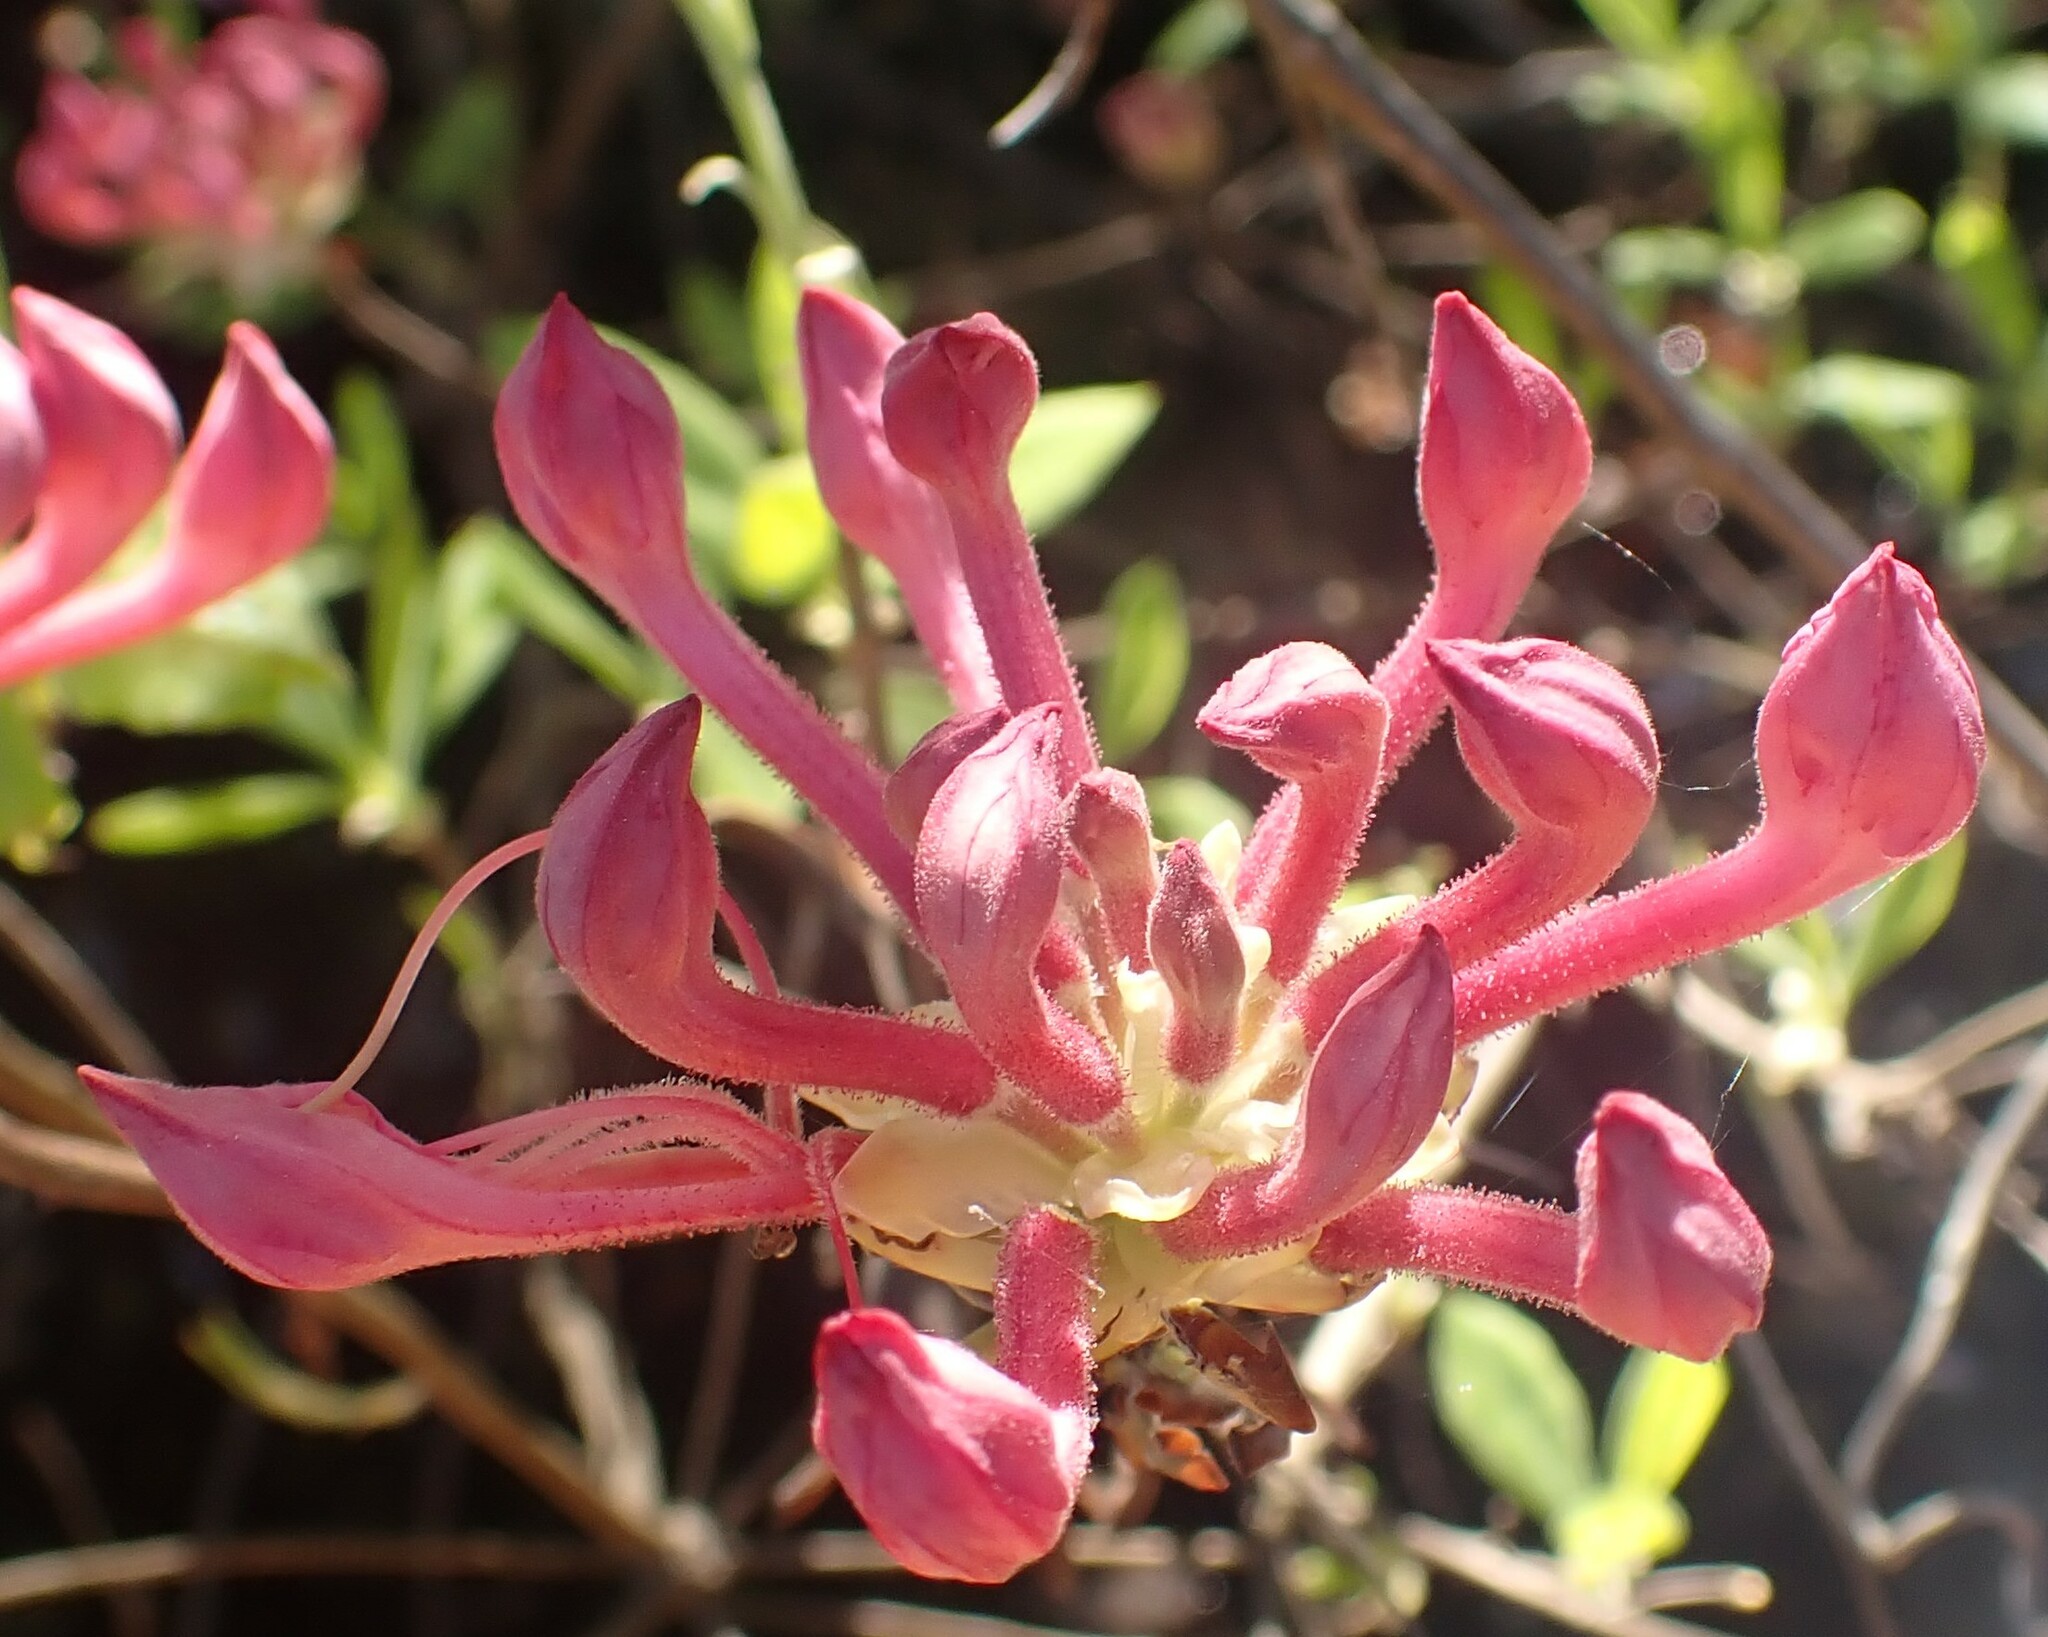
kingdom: Plantae
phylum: Tracheophyta
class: Magnoliopsida
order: Ericales
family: Ericaceae
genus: Rhododendron
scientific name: Rhododendron canescens
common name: Mountain azalea
